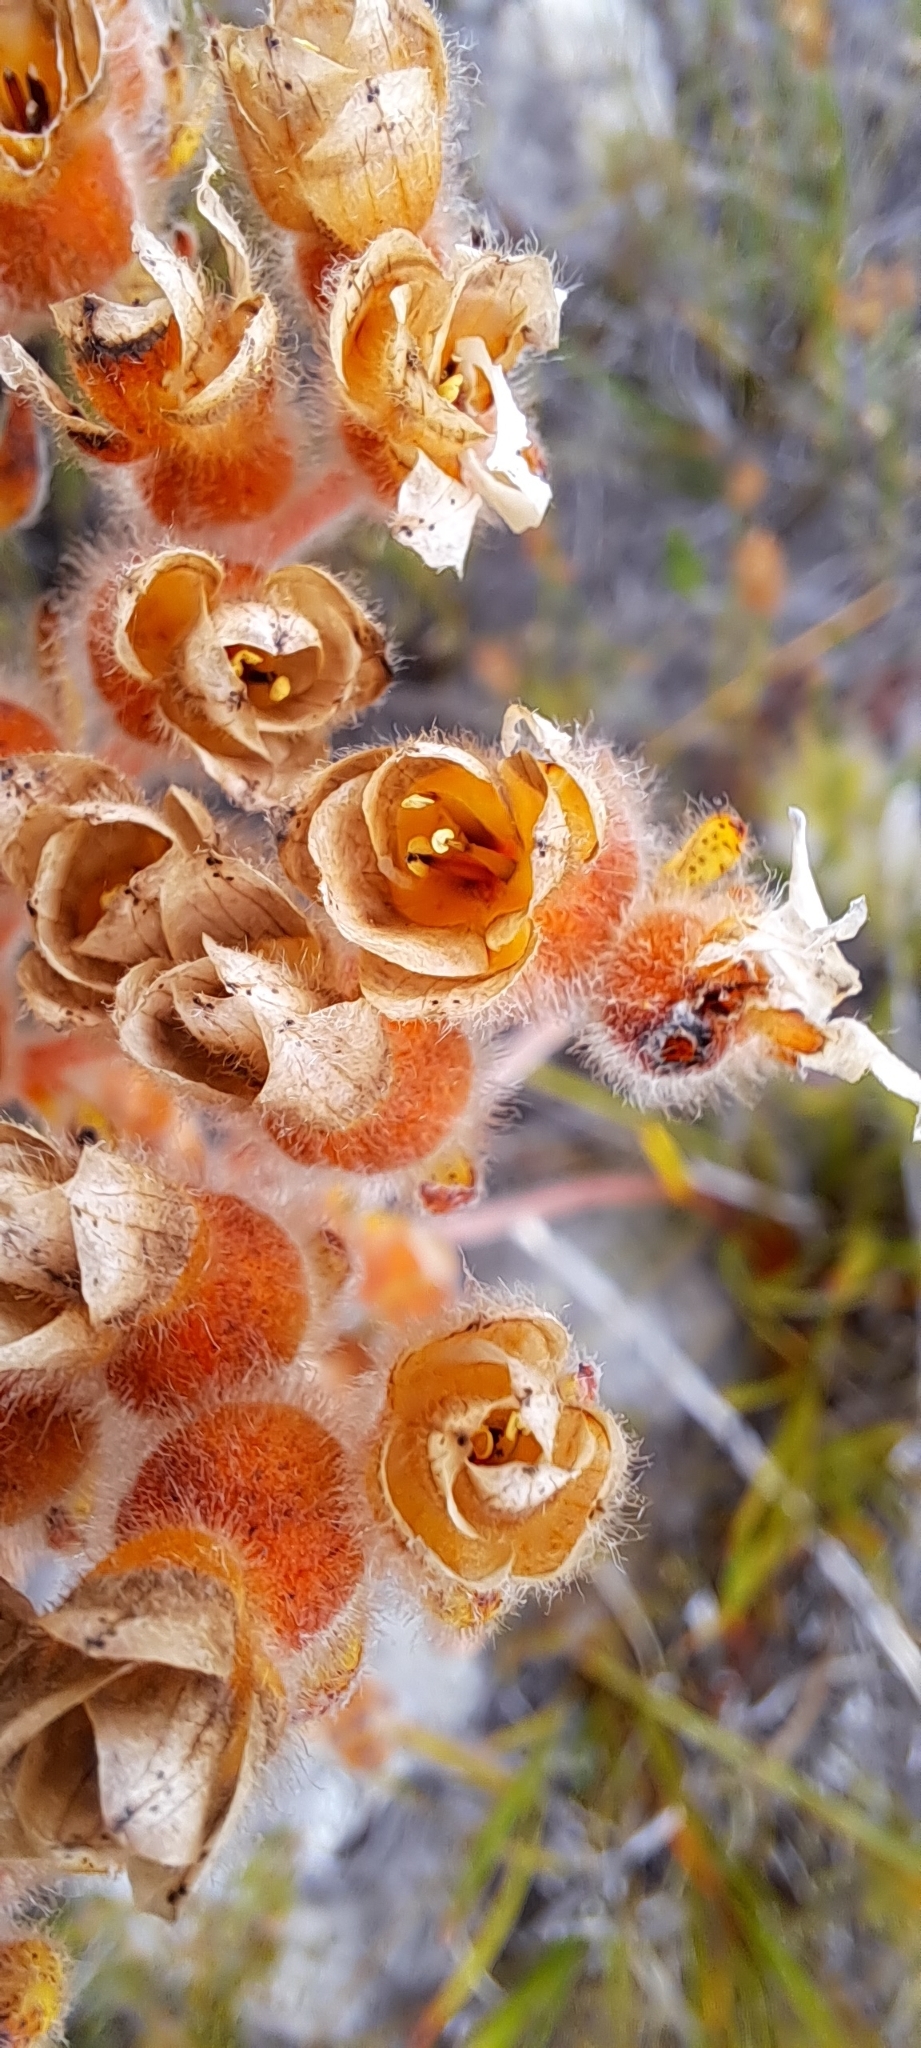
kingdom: Plantae
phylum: Tracheophyta
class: Liliopsida
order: Commelinales
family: Haemodoraceae
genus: Dilatris
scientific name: Dilatris pillansii
